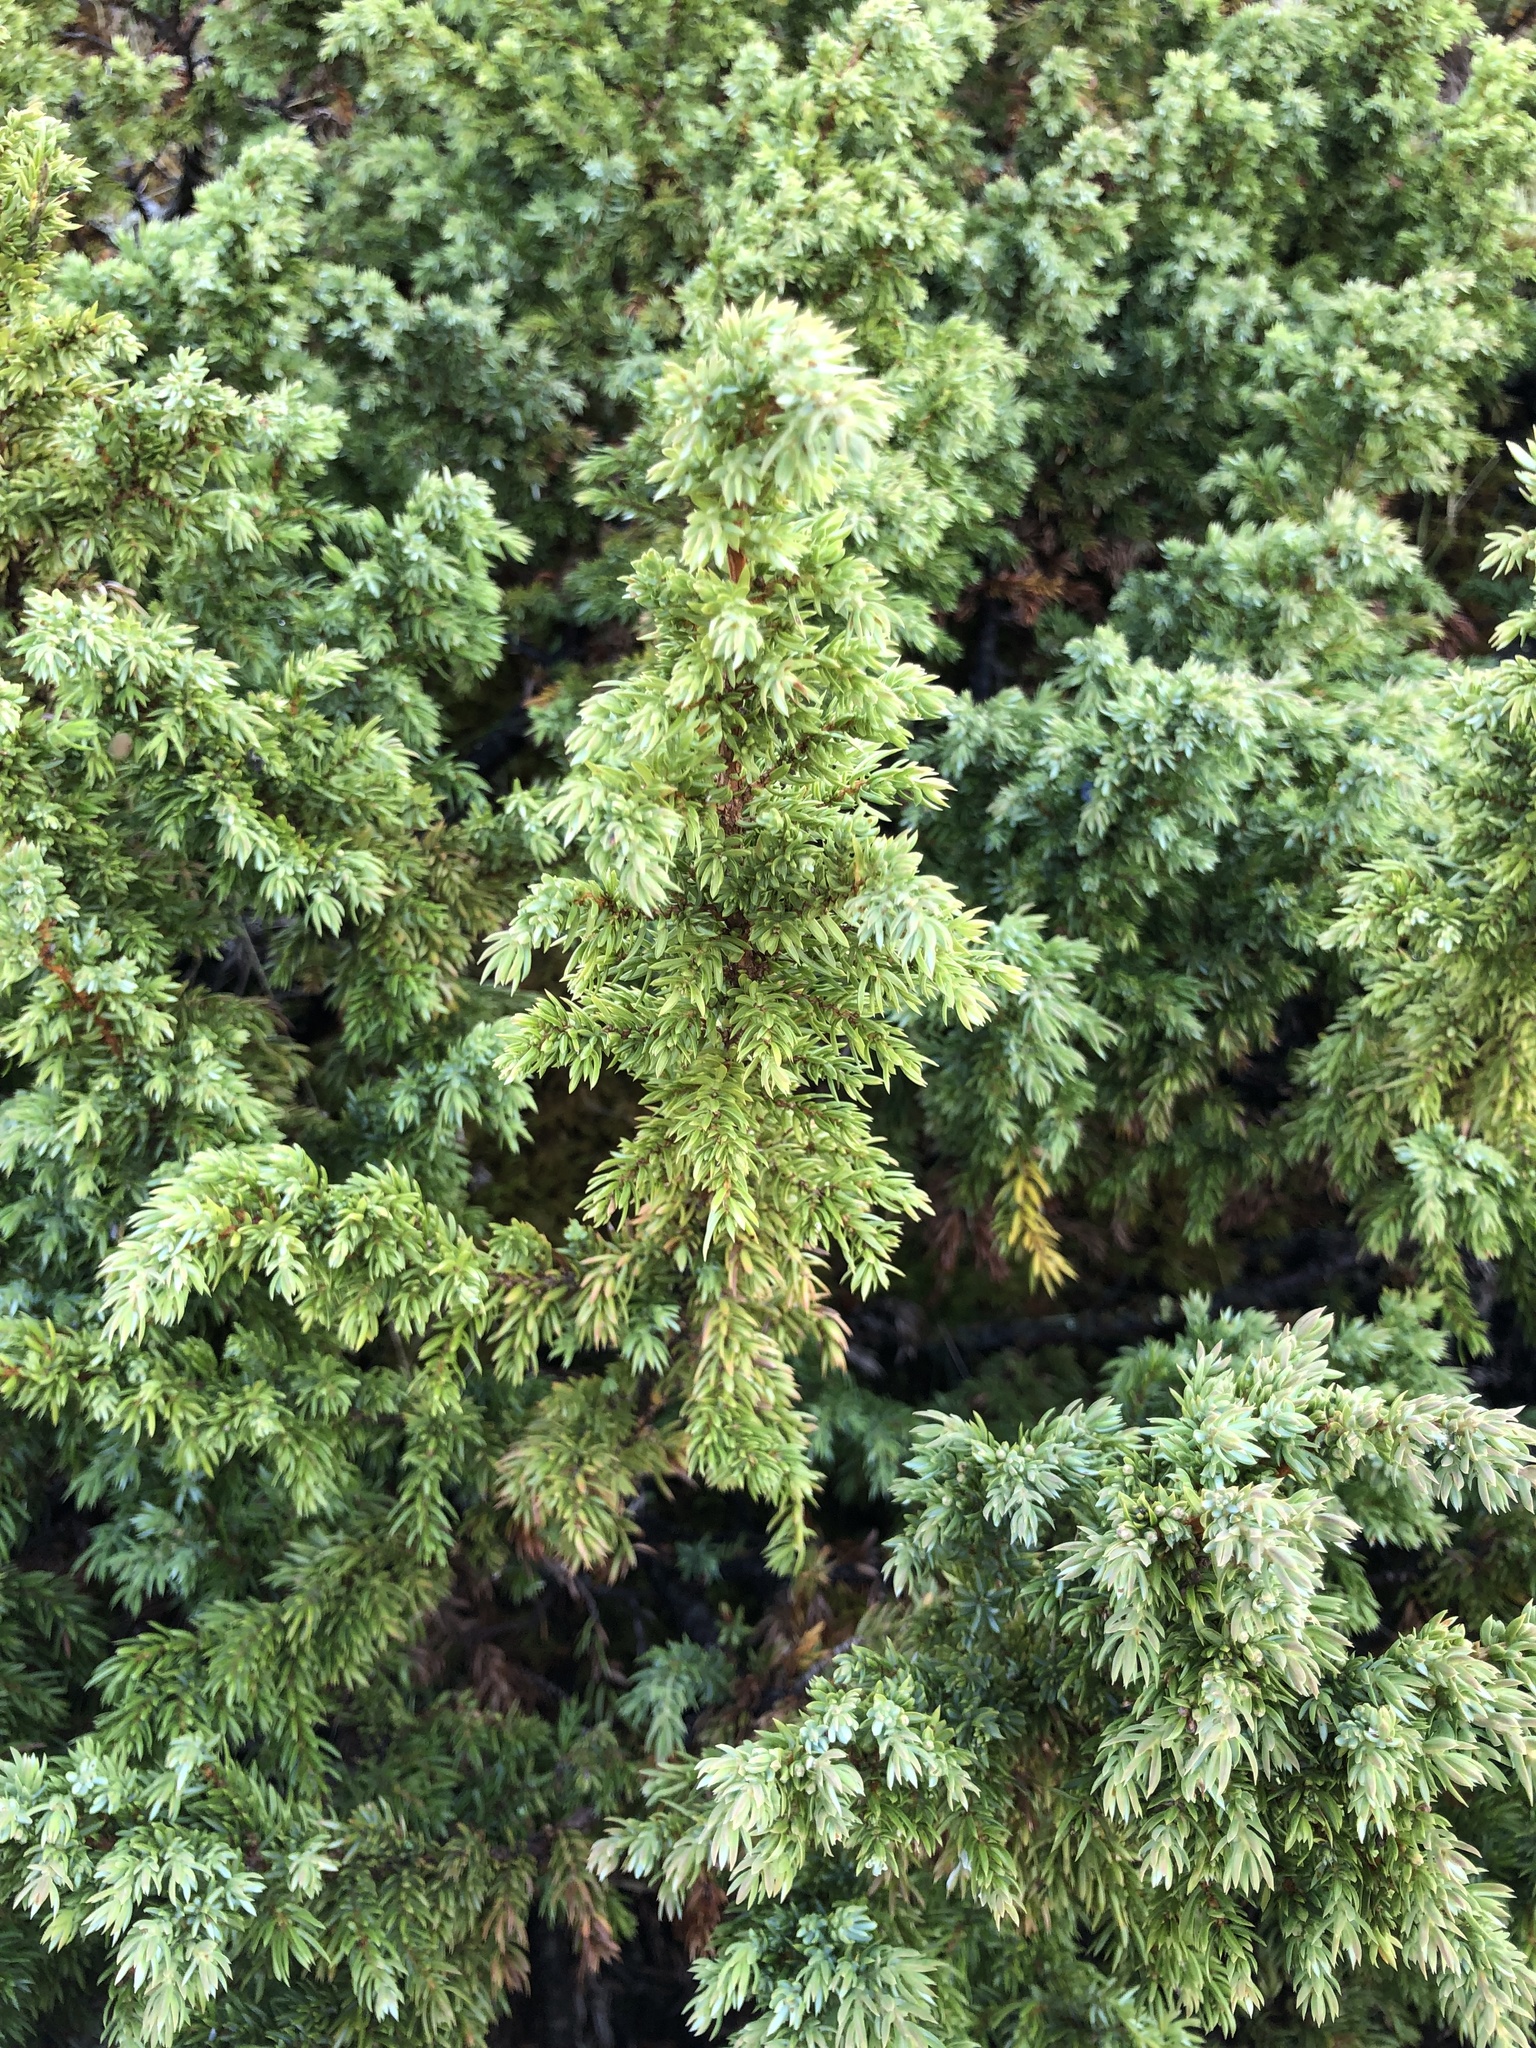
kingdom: Plantae
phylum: Tracheophyta
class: Pinopsida
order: Pinales
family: Cupressaceae
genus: Juniperus
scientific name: Juniperus communis
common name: Common juniper
